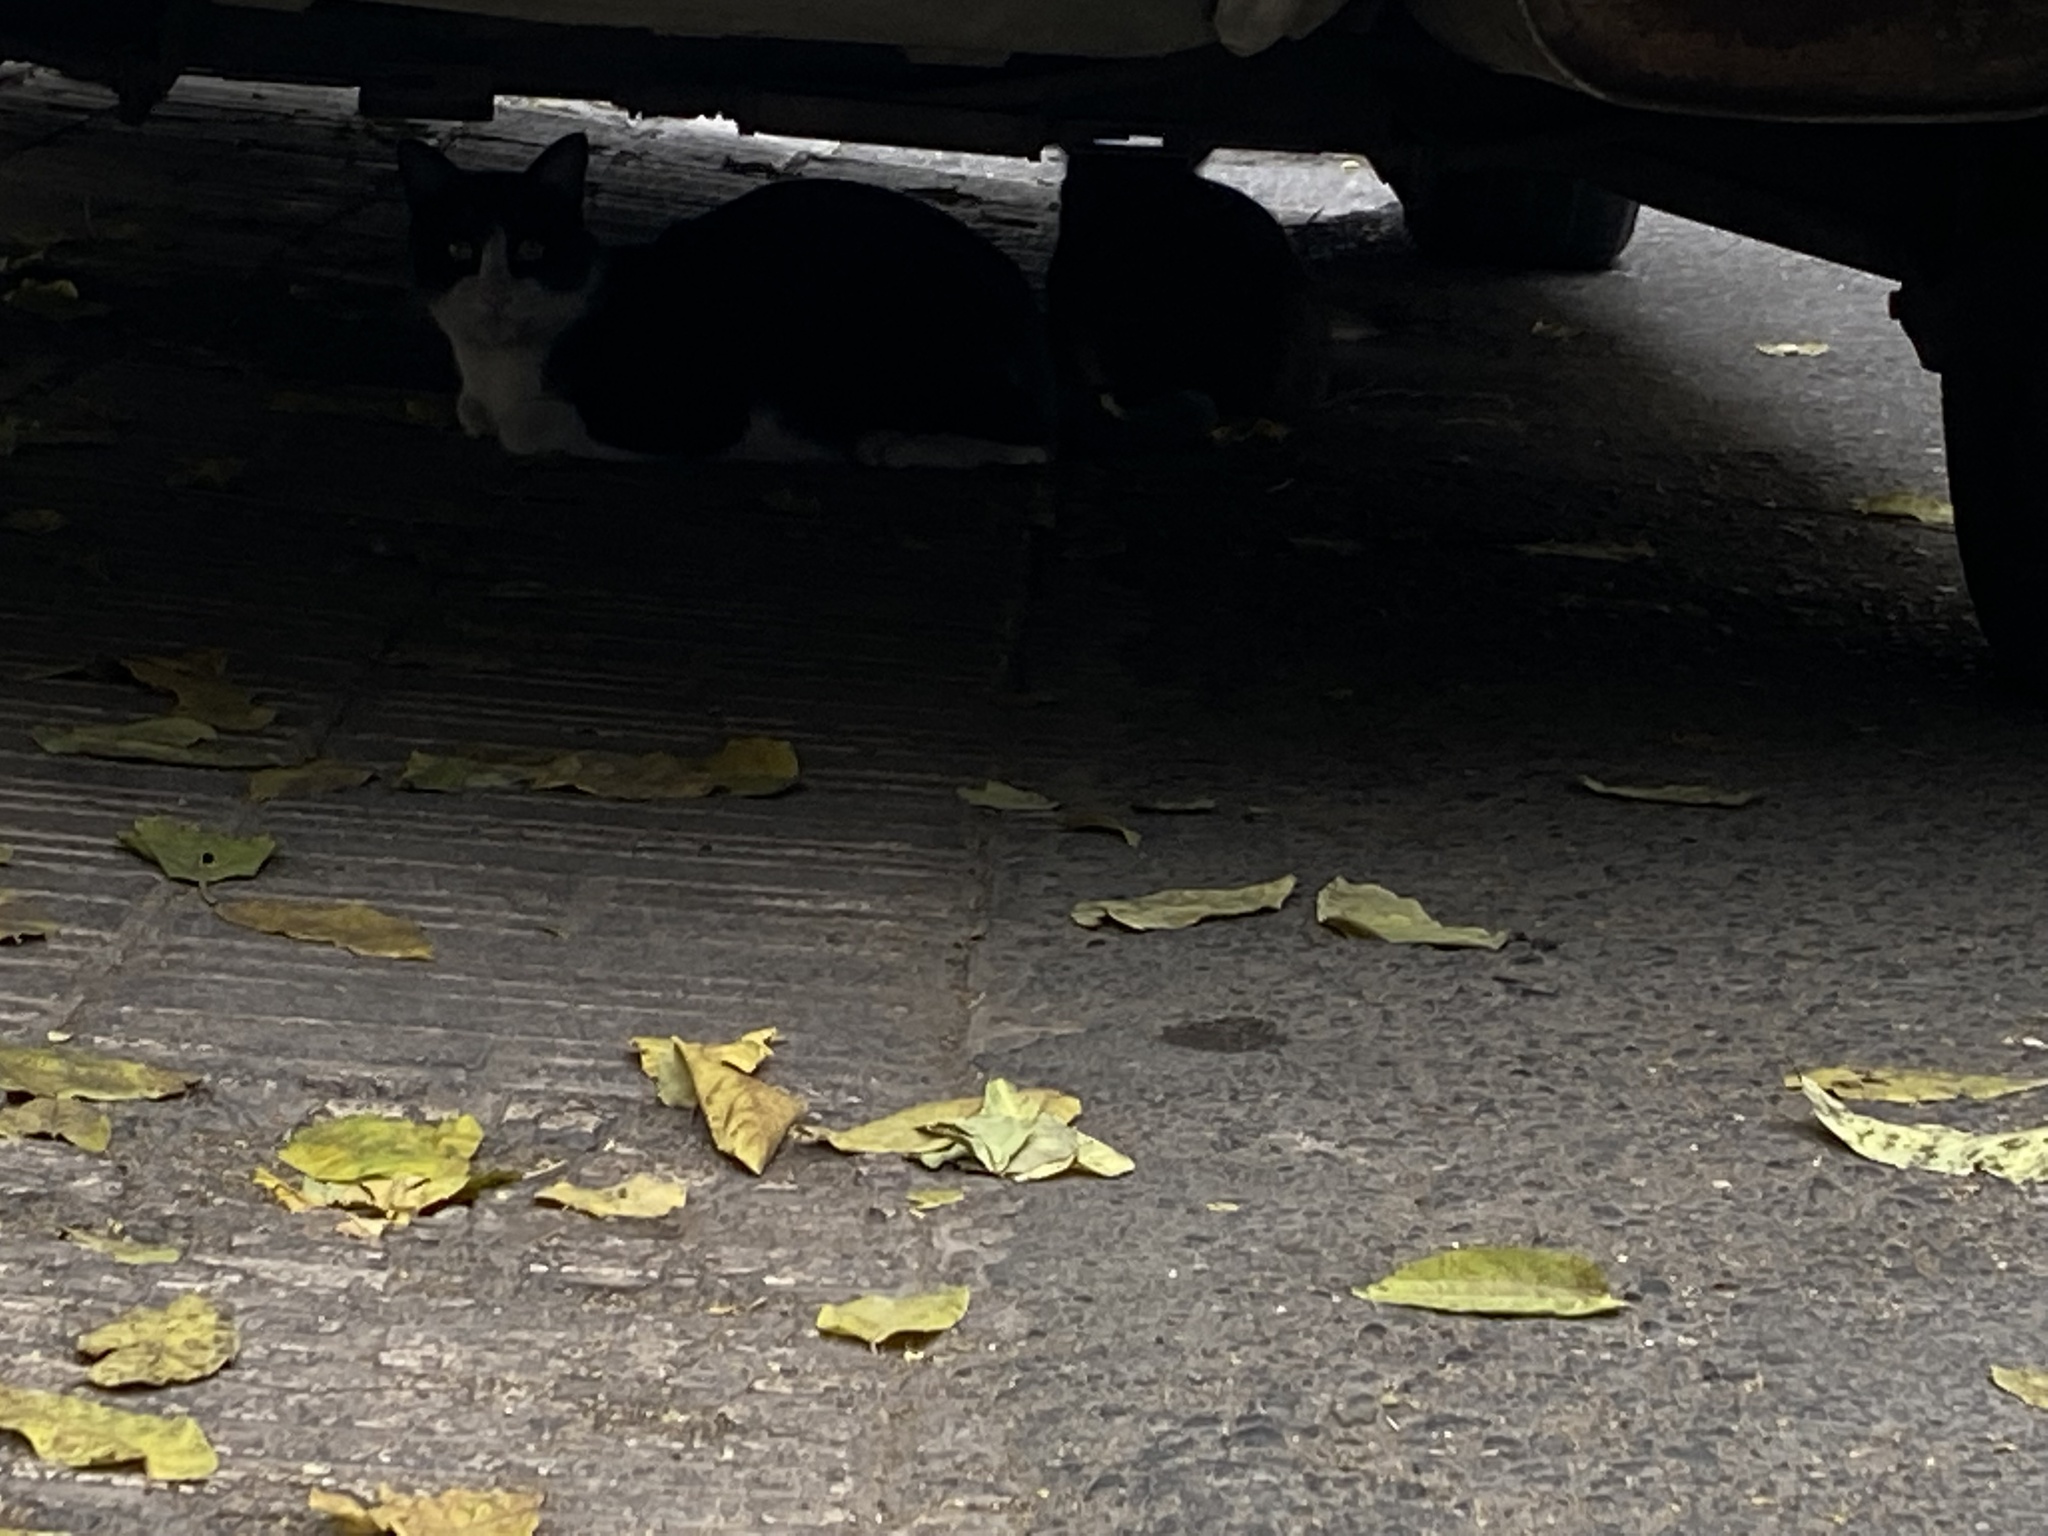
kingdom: Animalia
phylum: Chordata
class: Mammalia
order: Carnivora
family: Felidae
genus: Felis
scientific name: Felis catus
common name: Domestic cat
